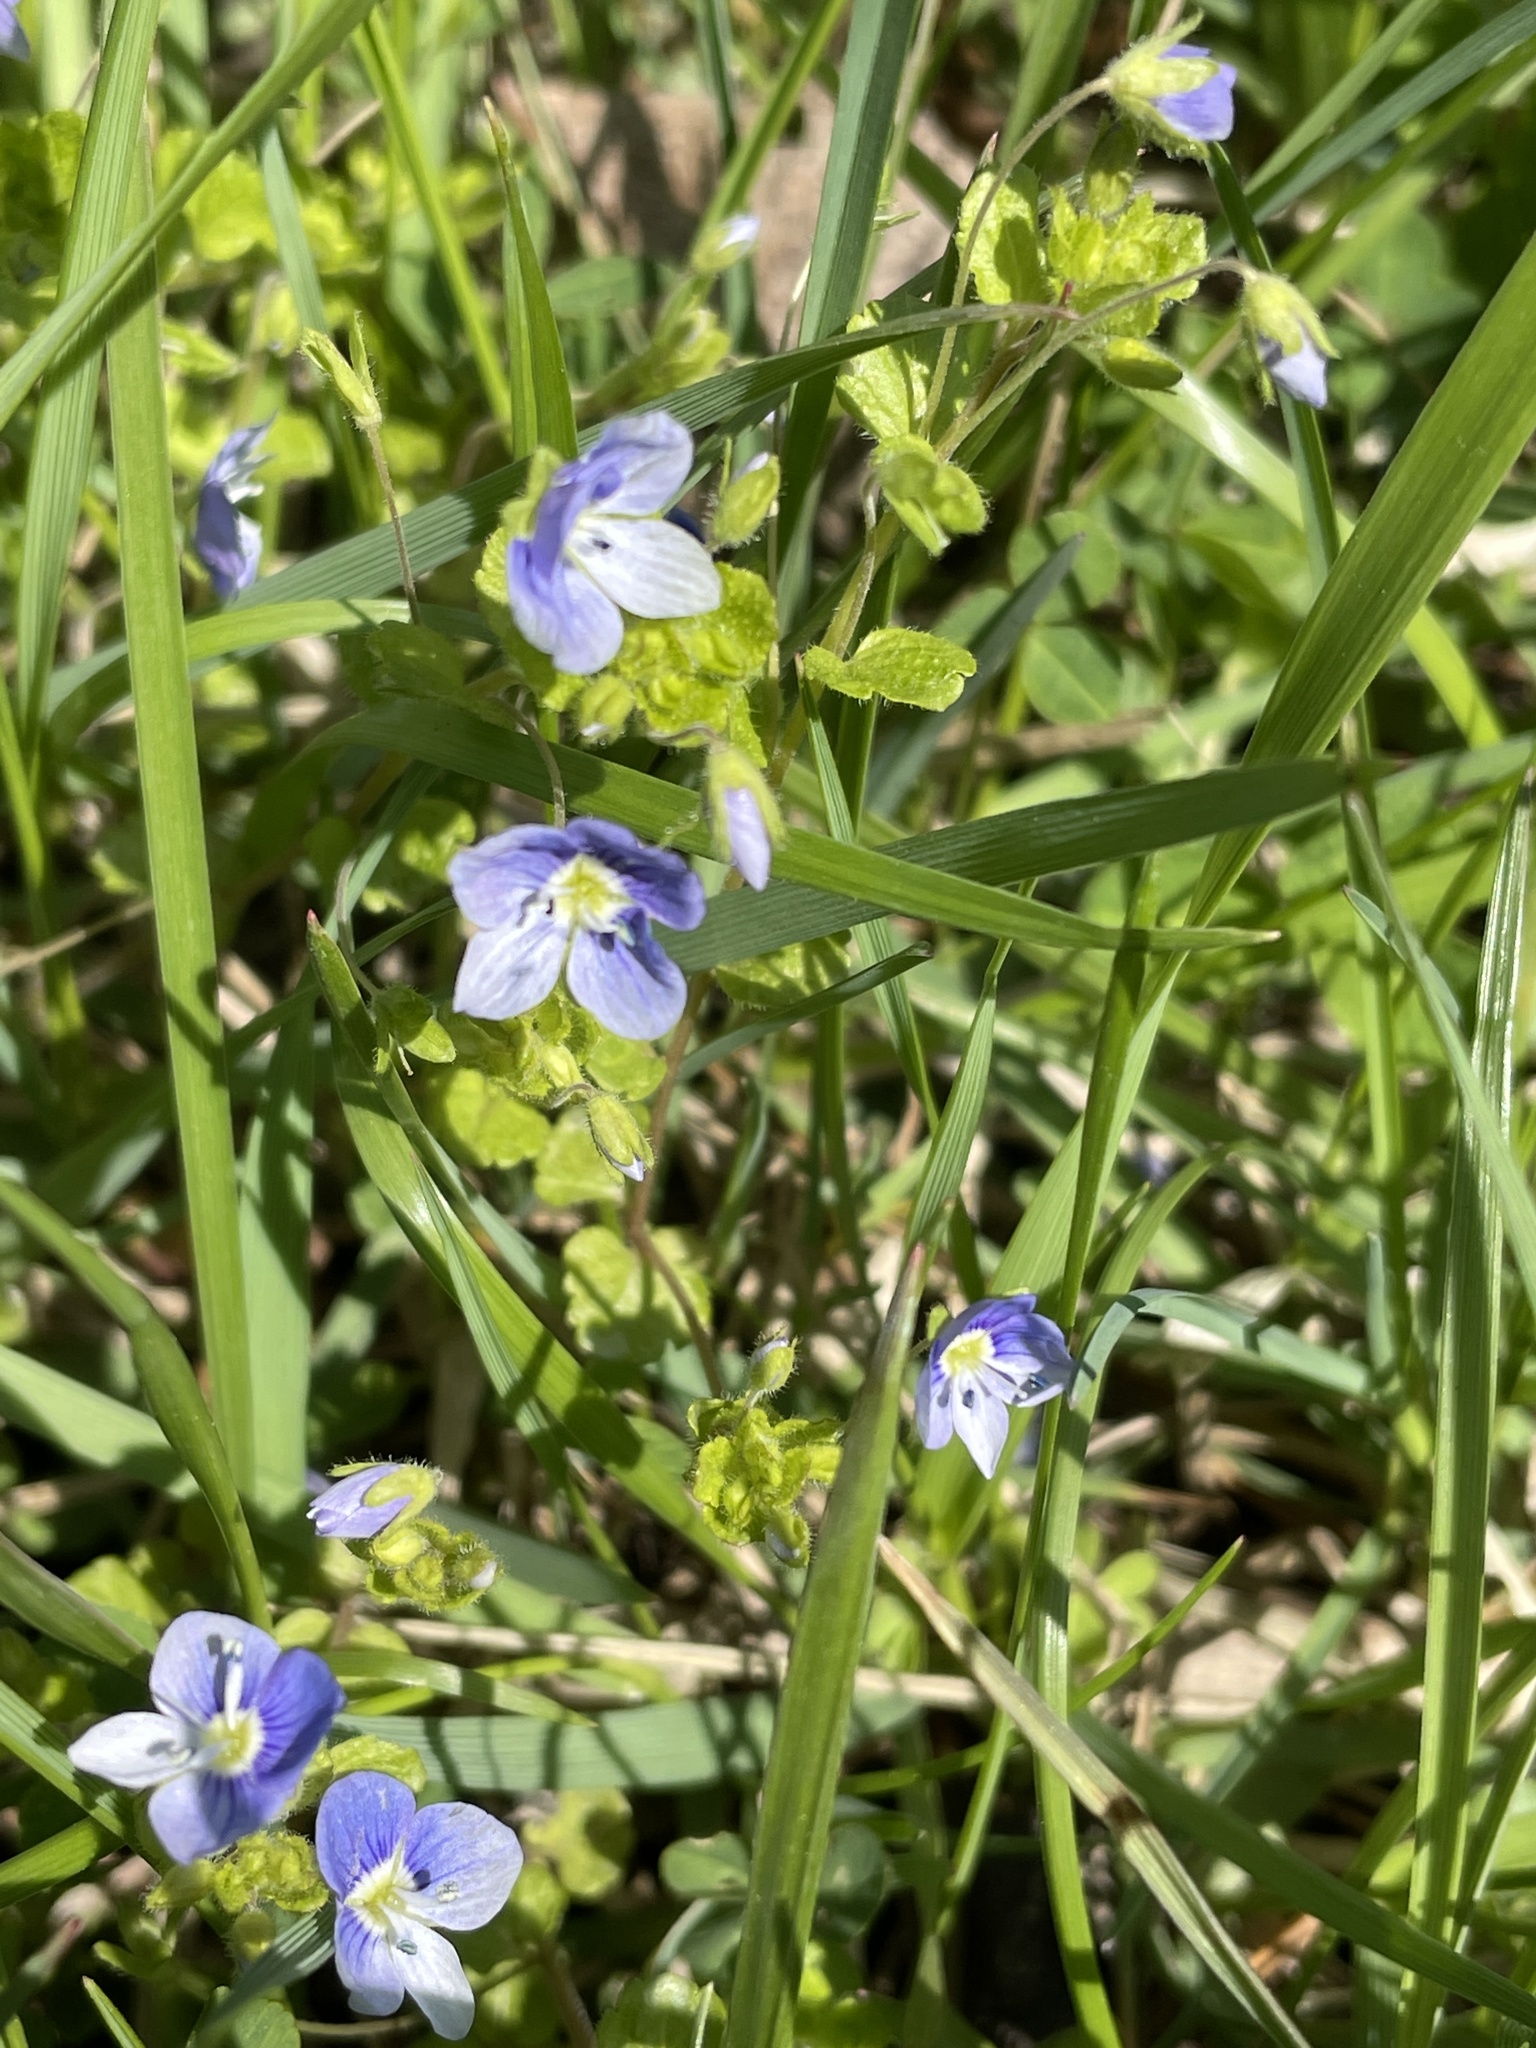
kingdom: Plantae
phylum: Tracheophyta
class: Magnoliopsida
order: Lamiales
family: Plantaginaceae
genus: Veronica
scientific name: Veronica filiformis
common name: Slender speedwell
